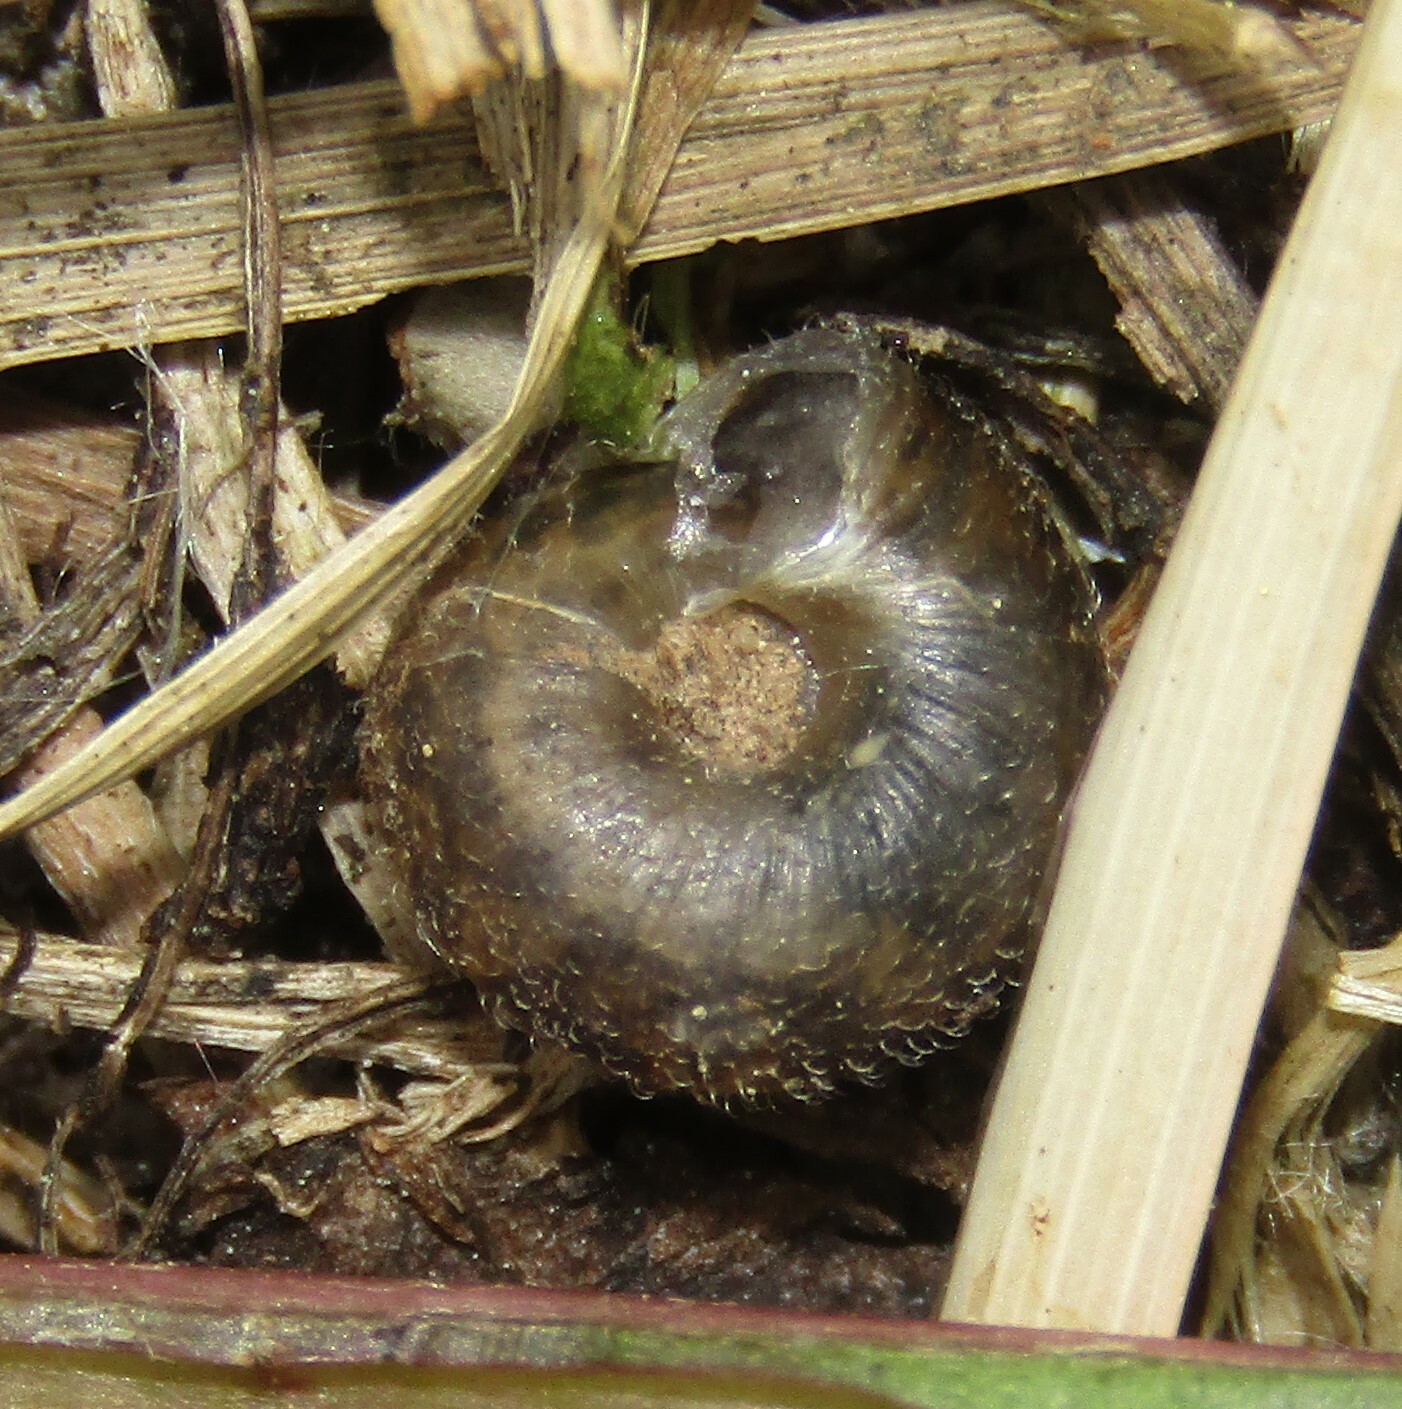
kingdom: Animalia
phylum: Mollusca
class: Gastropoda
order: Stylommatophora
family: Hygromiidae
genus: Trochulus
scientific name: Trochulus hispidus
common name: Hairy snail
